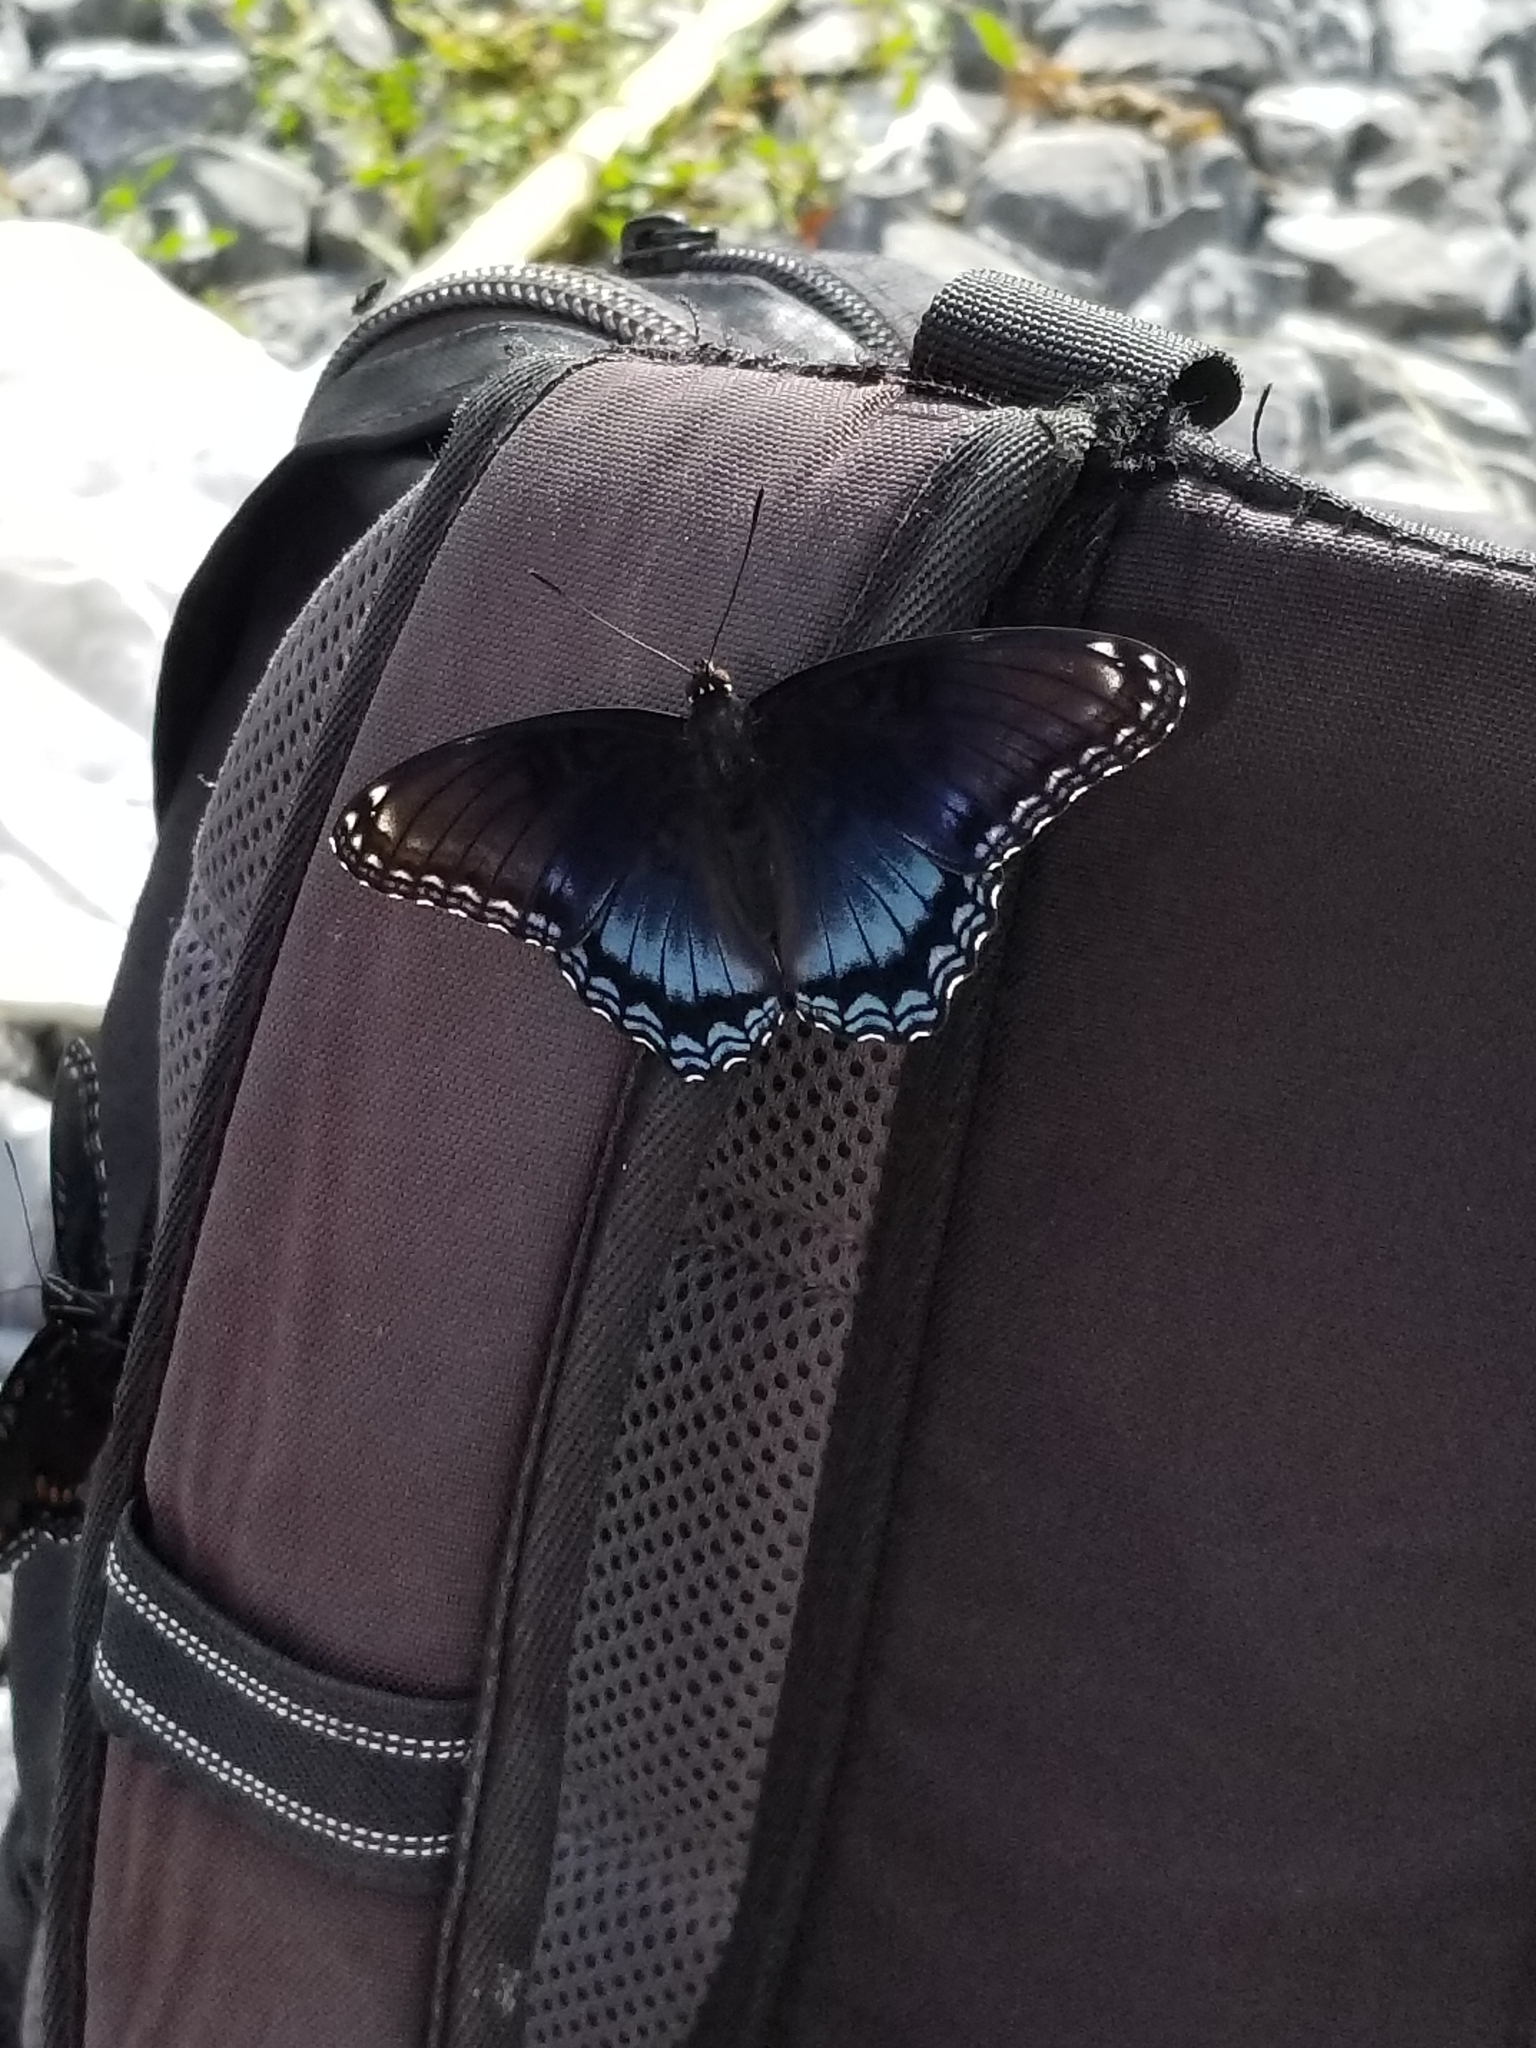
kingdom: Animalia
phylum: Arthropoda
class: Insecta
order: Lepidoptera
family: Nymphalidae
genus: Limenitis
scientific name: Limenitis arthemis
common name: Red-spotted admiral
